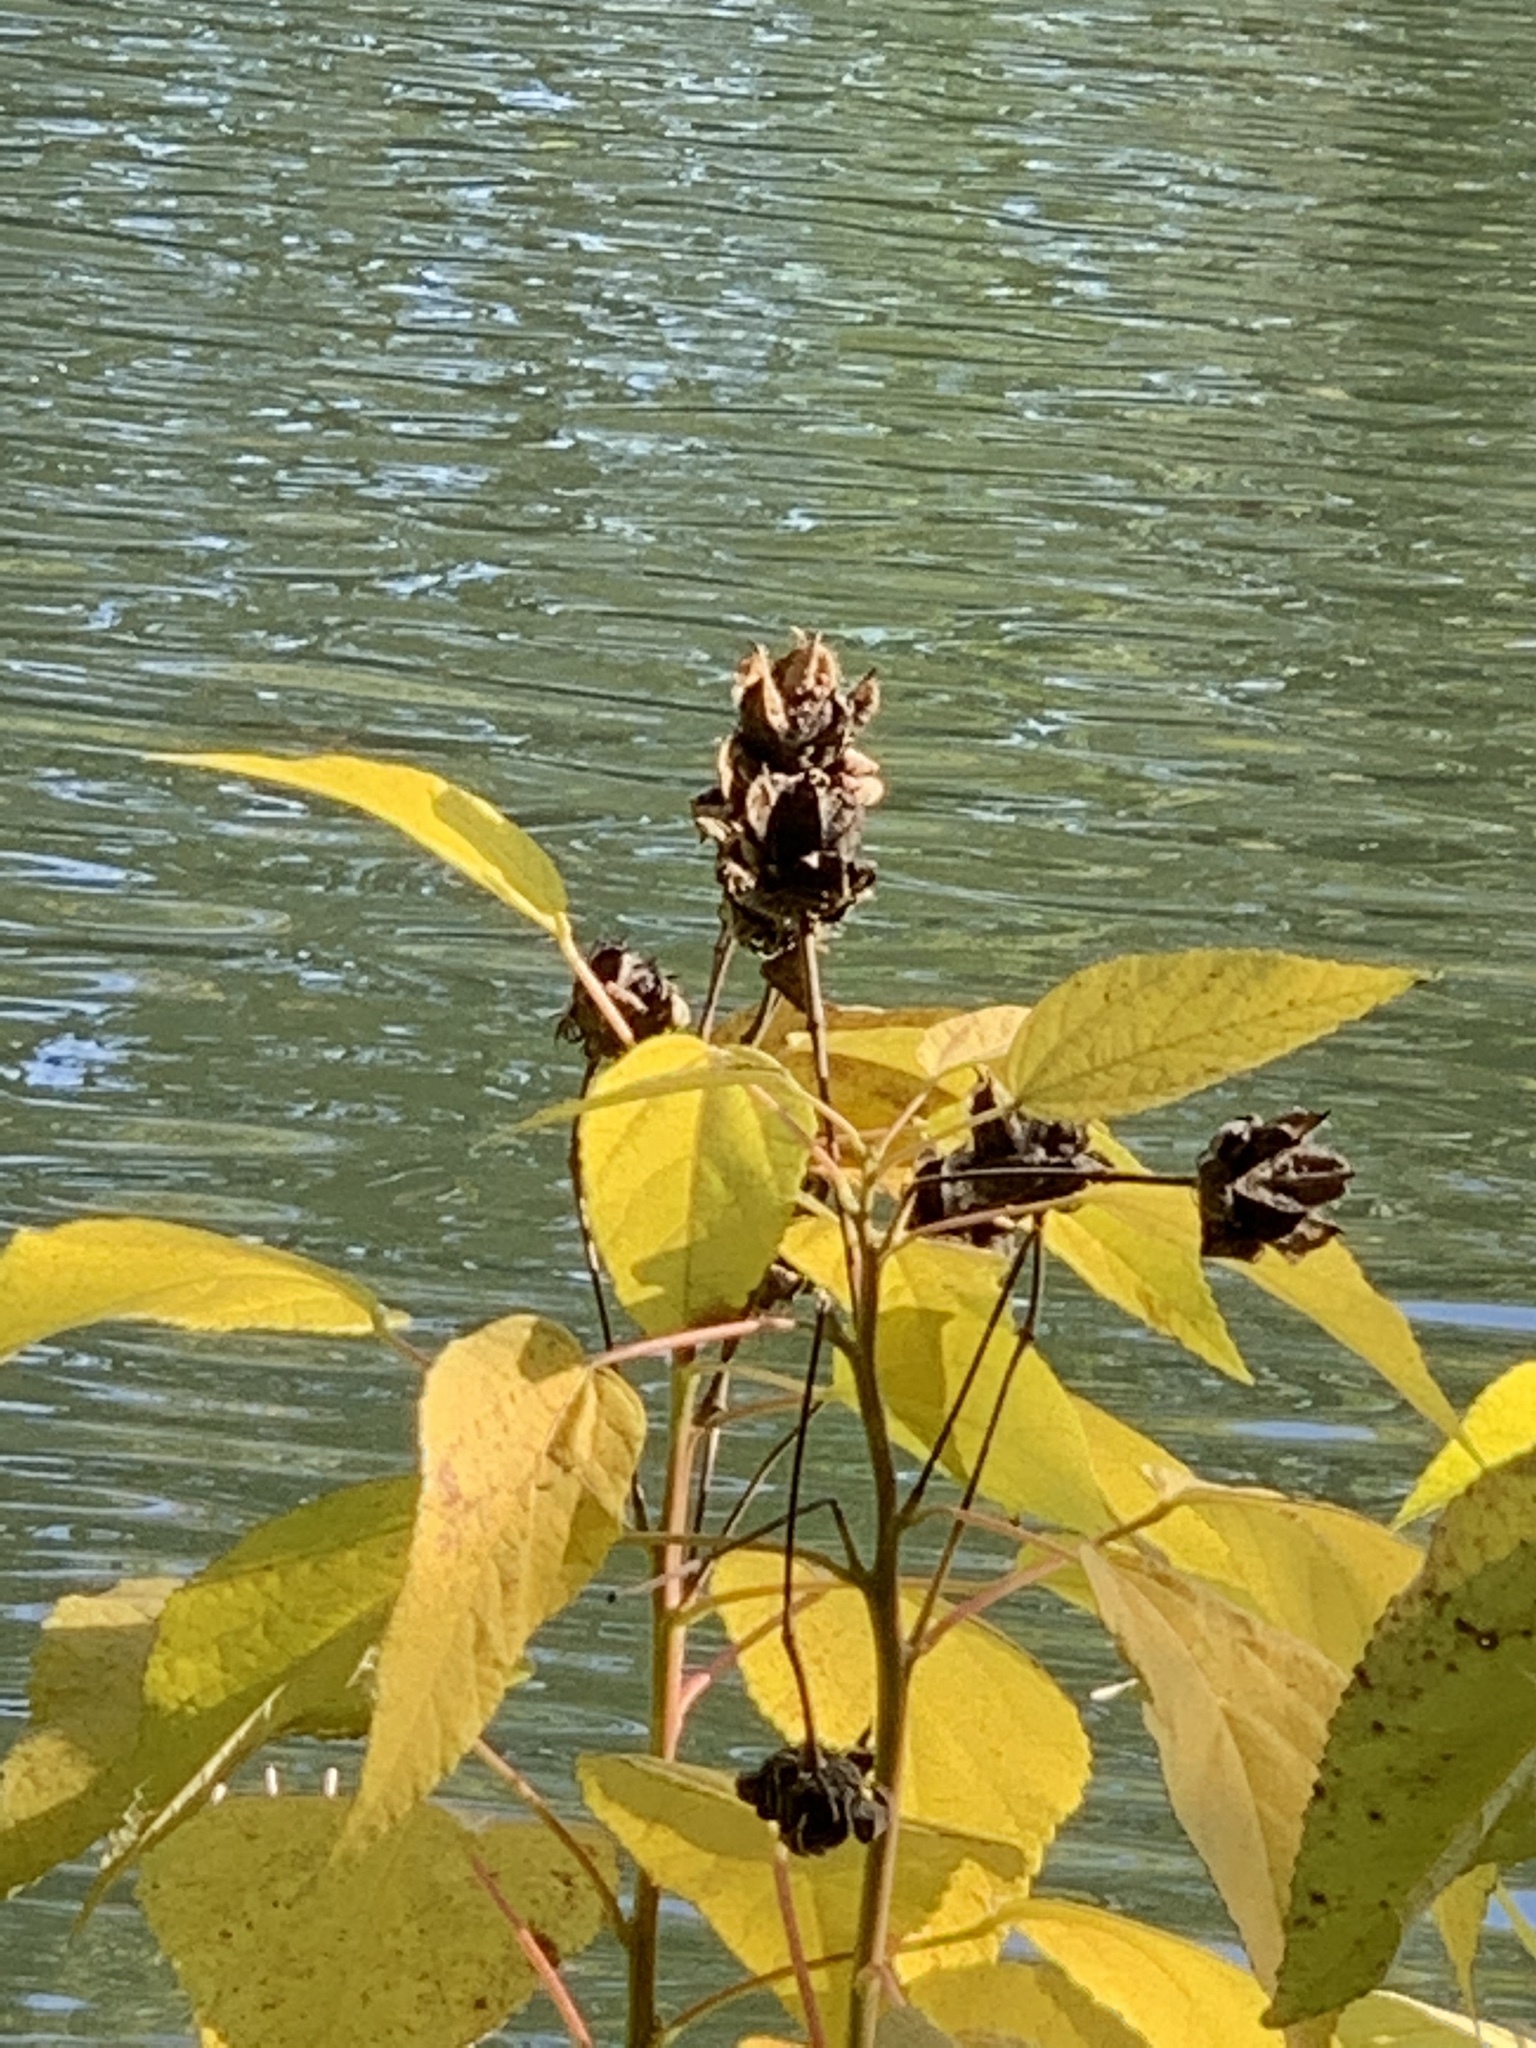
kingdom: Plantae
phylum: Tracheophyta
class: Magnoliopsida
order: Malvales
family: Malvaceae
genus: Hibiscus
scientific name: Hibiscus moscheutos
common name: Common rose-mallow
